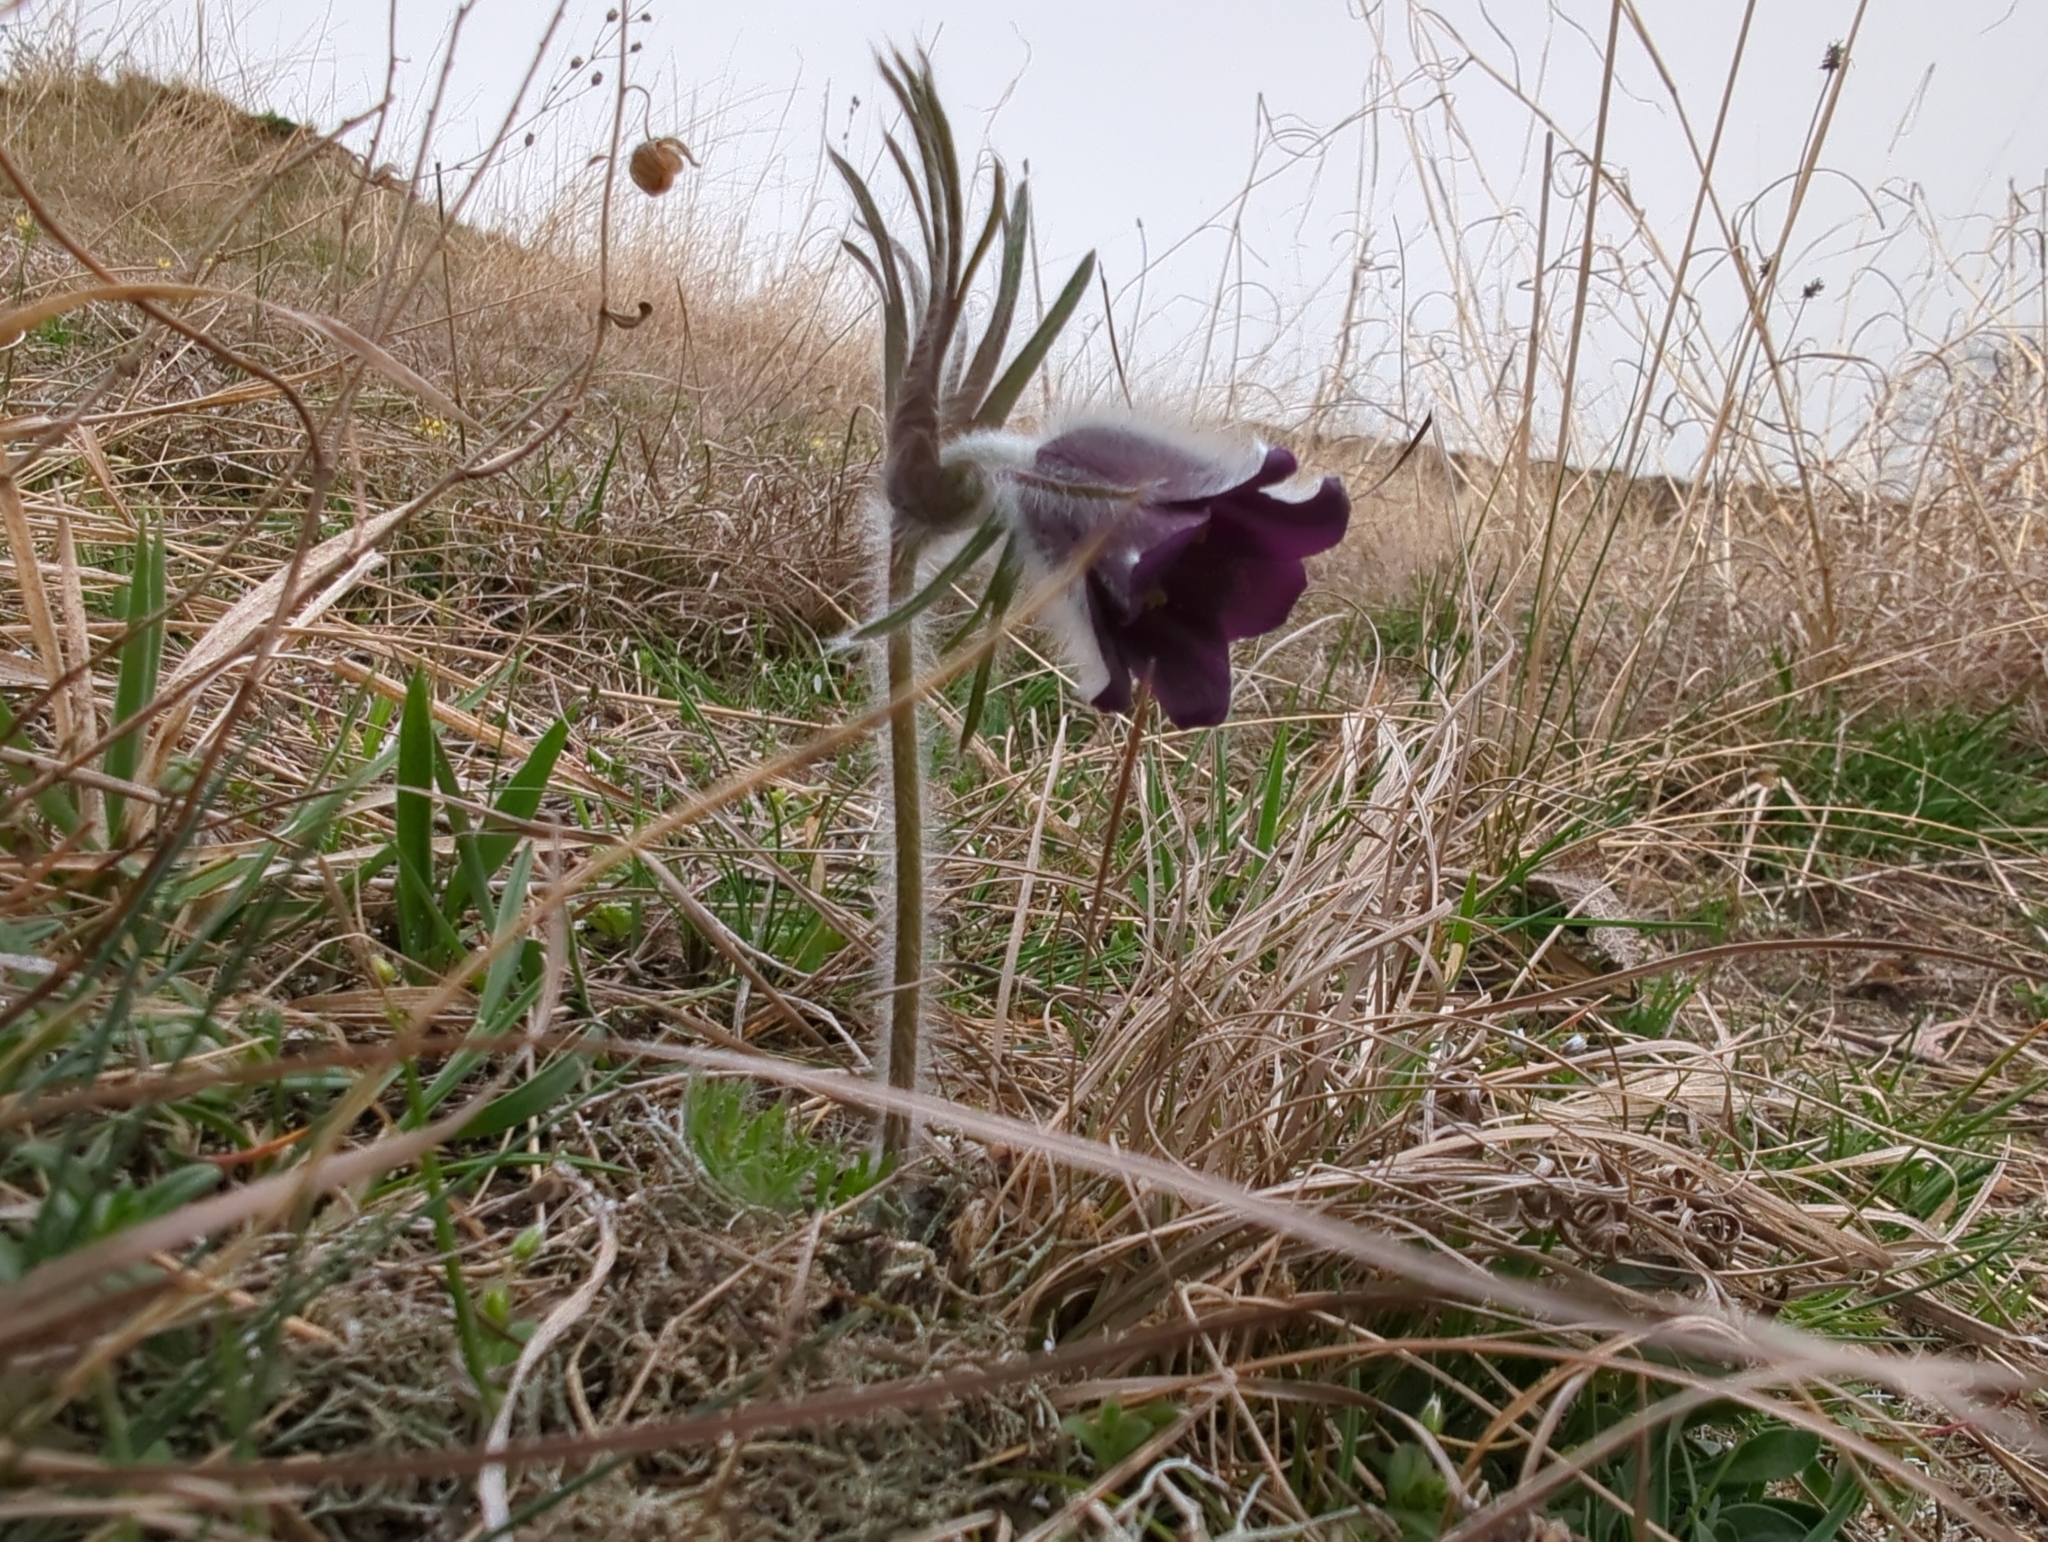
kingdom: Plantae
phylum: Tracheophyta
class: Magnoliopsida
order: Ranunculales
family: Ranunculaceae
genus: Pulsatilla
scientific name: Pulsatilla pratensis
